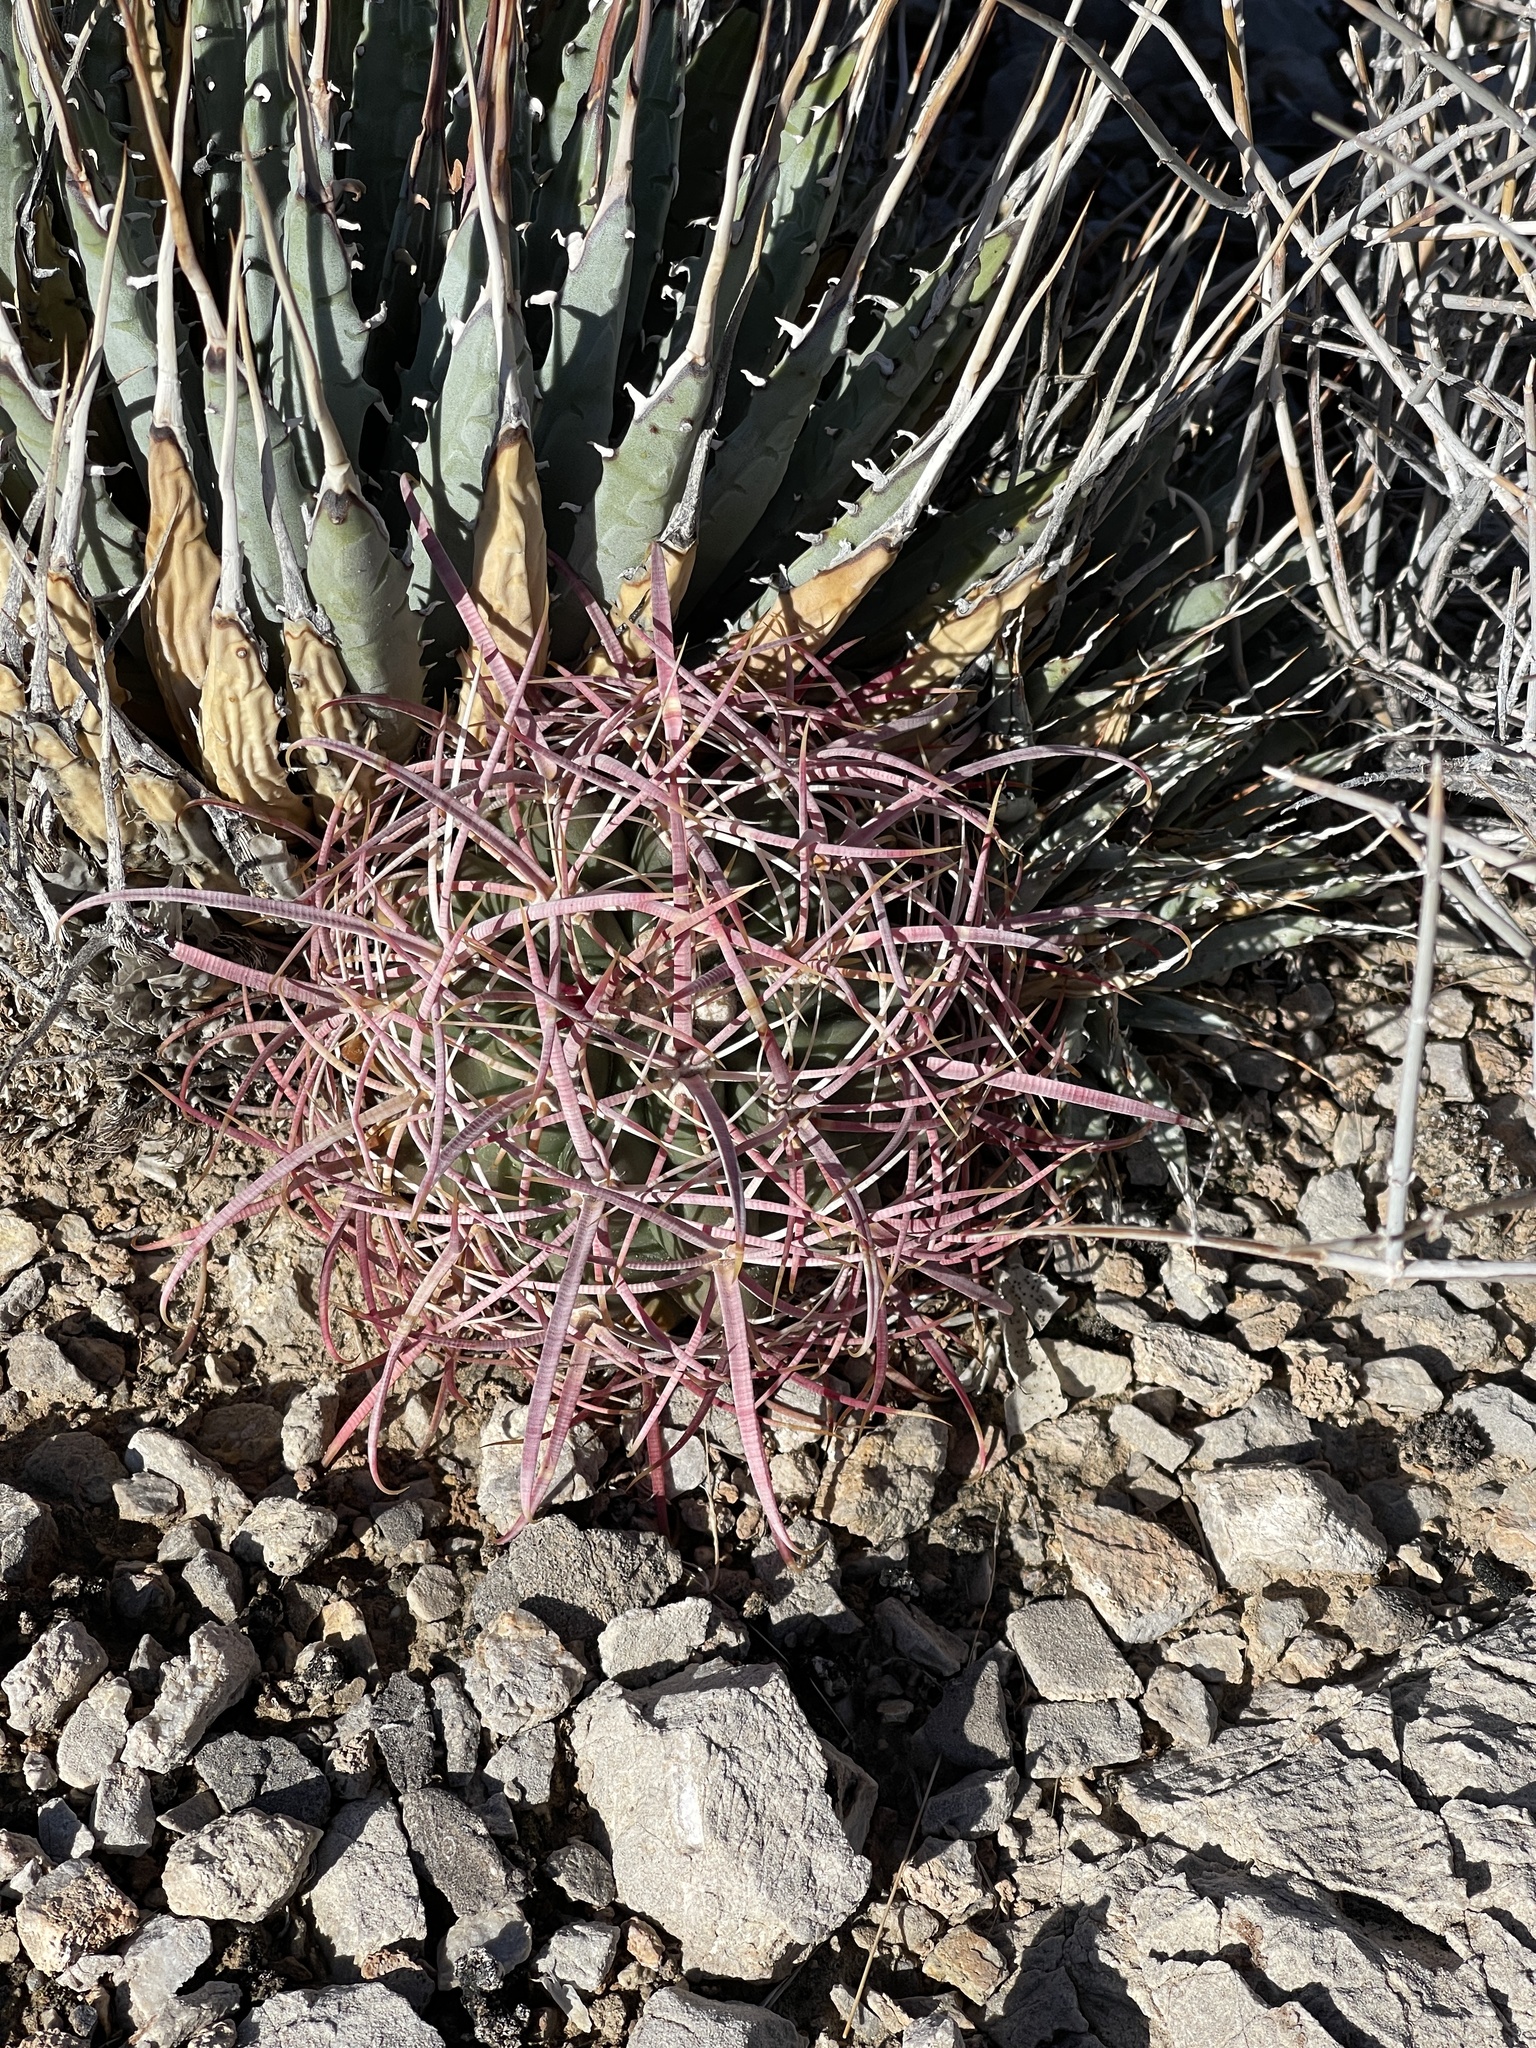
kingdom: Plantae
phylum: Tracheophyta
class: Magnoliopsida
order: Caryophyllales
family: Cactaceae
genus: Ferocactus
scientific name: Ferocactus cylindraceus
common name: California barrel cactus
